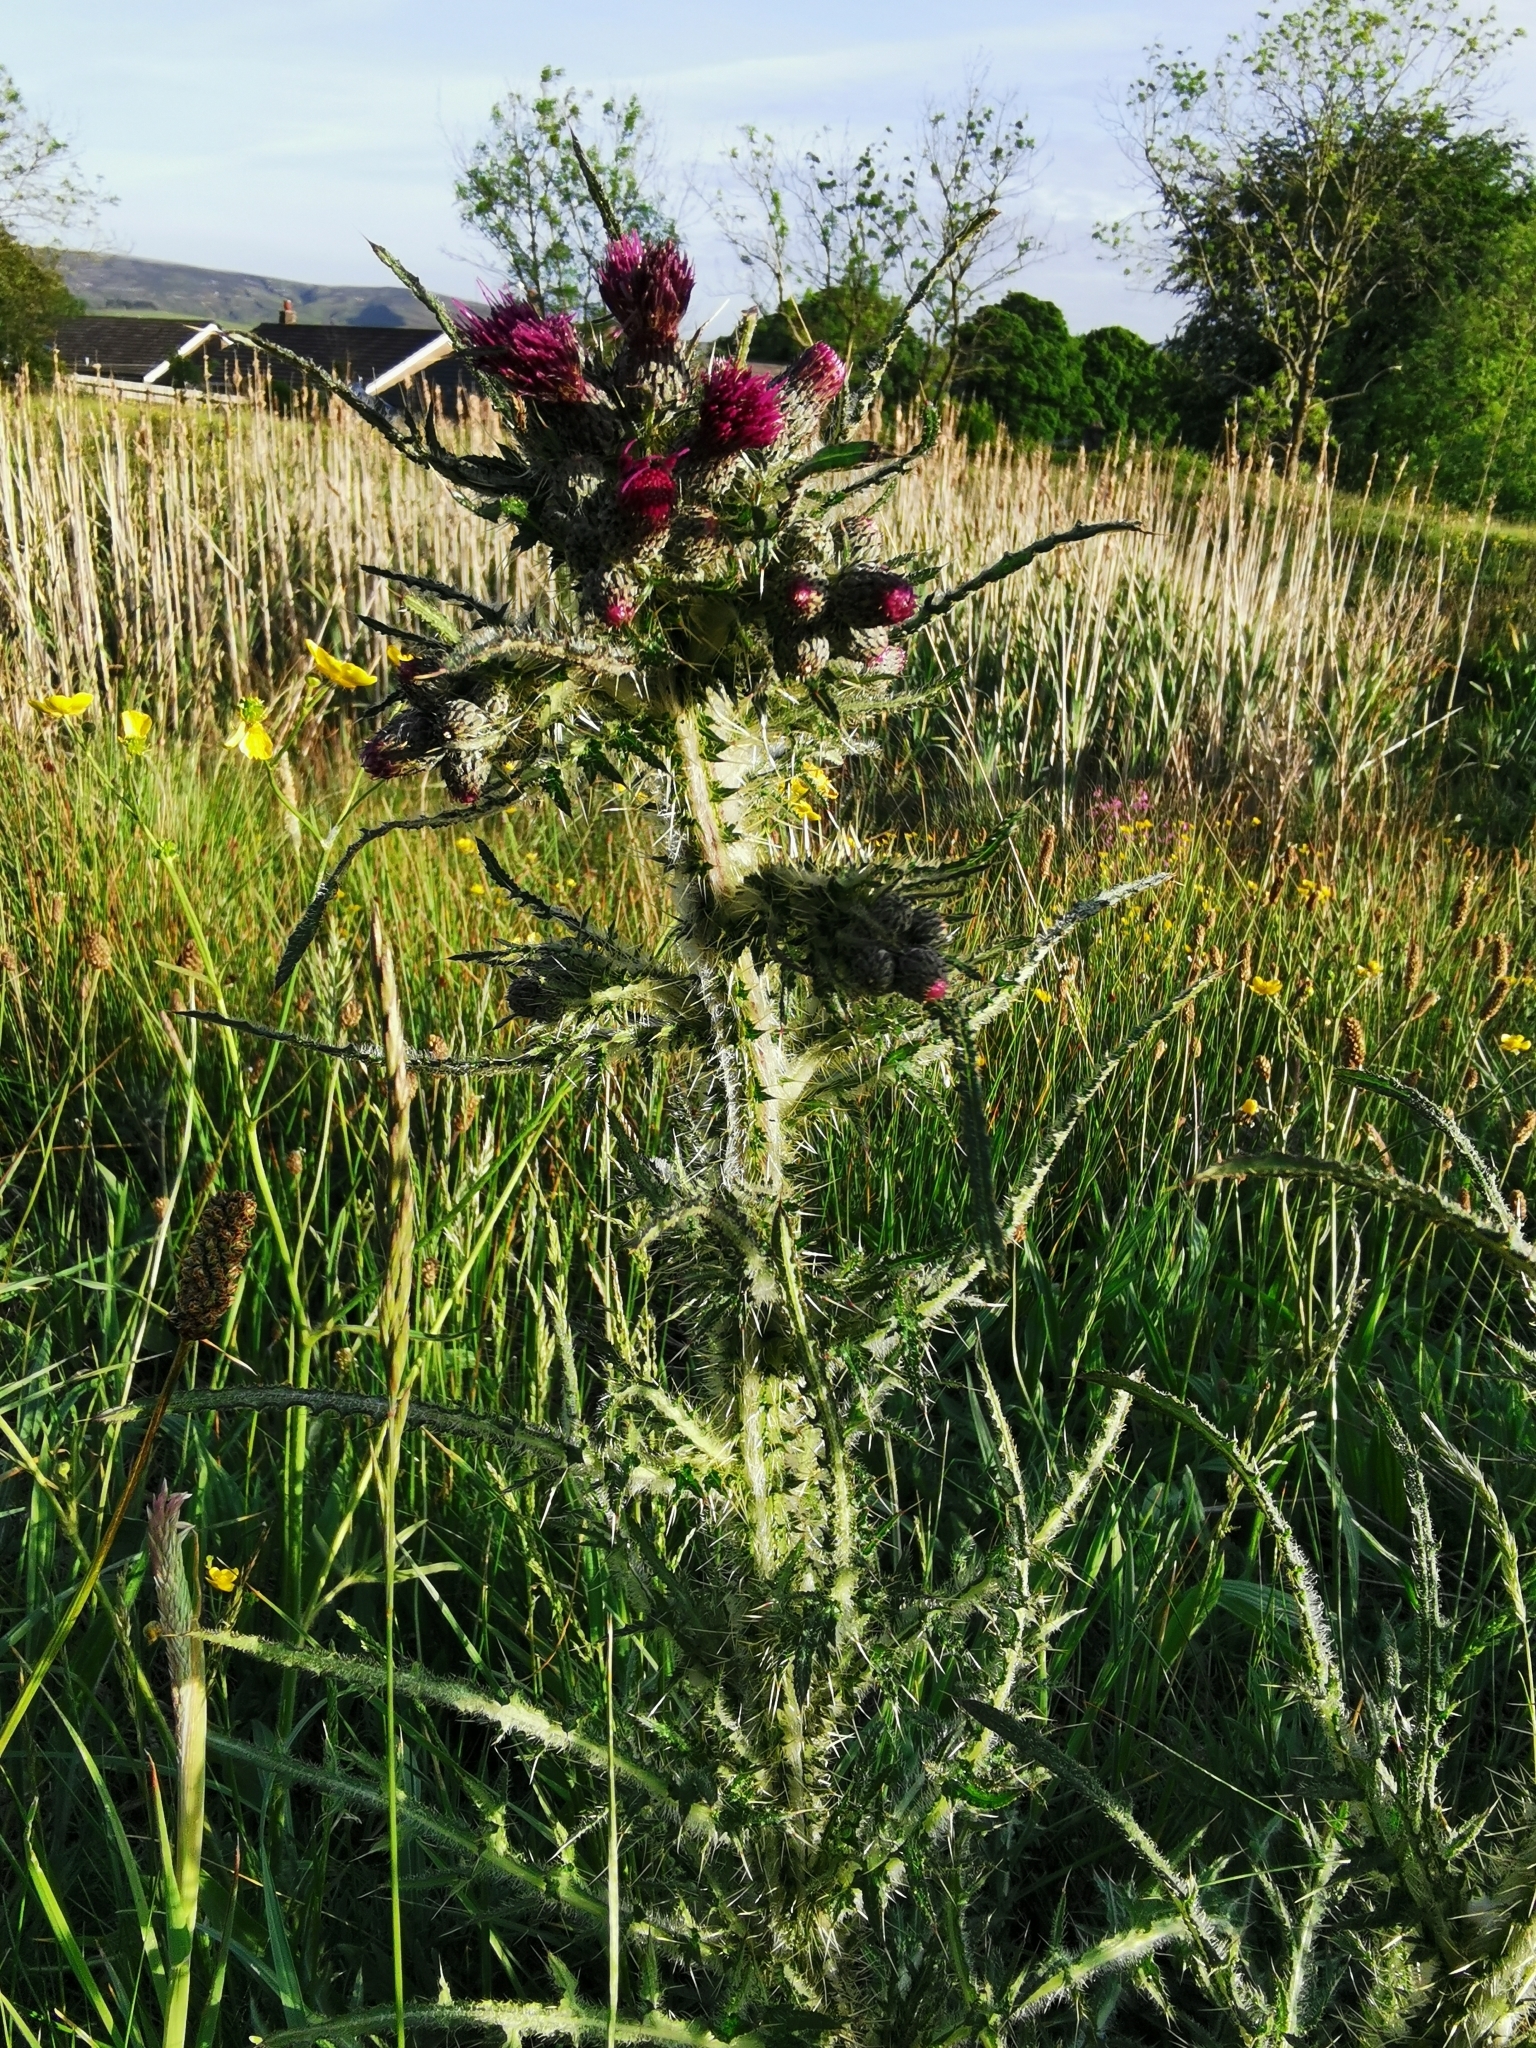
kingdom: Plantae
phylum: Tracheophyta
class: Magnoliopsida
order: Asterales
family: Asteraceae
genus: Cirsium
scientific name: Cirsium palustre
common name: Marsh thistle
